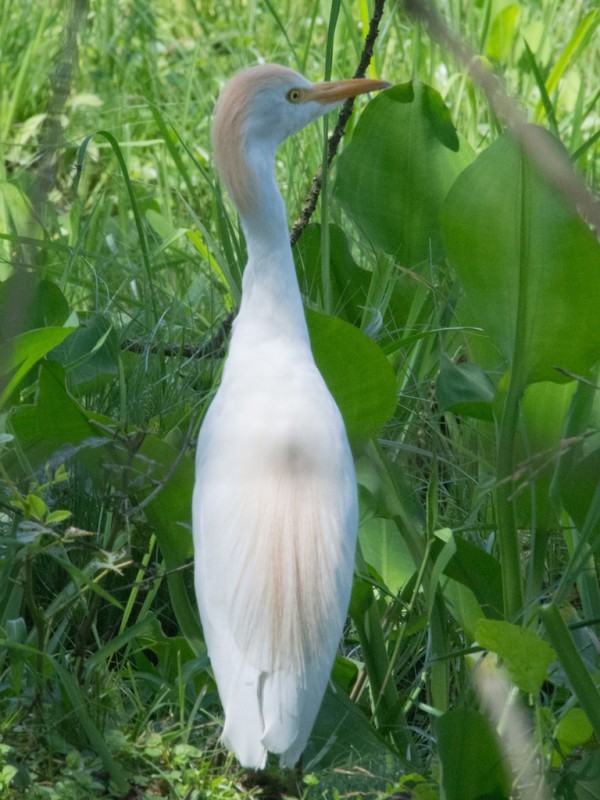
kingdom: Animalia
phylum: Chordata
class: Aves
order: Pelecaniformes
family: Ardeidae
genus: Bubulcus
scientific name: Bubulcus ibis
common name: Cattle egret
